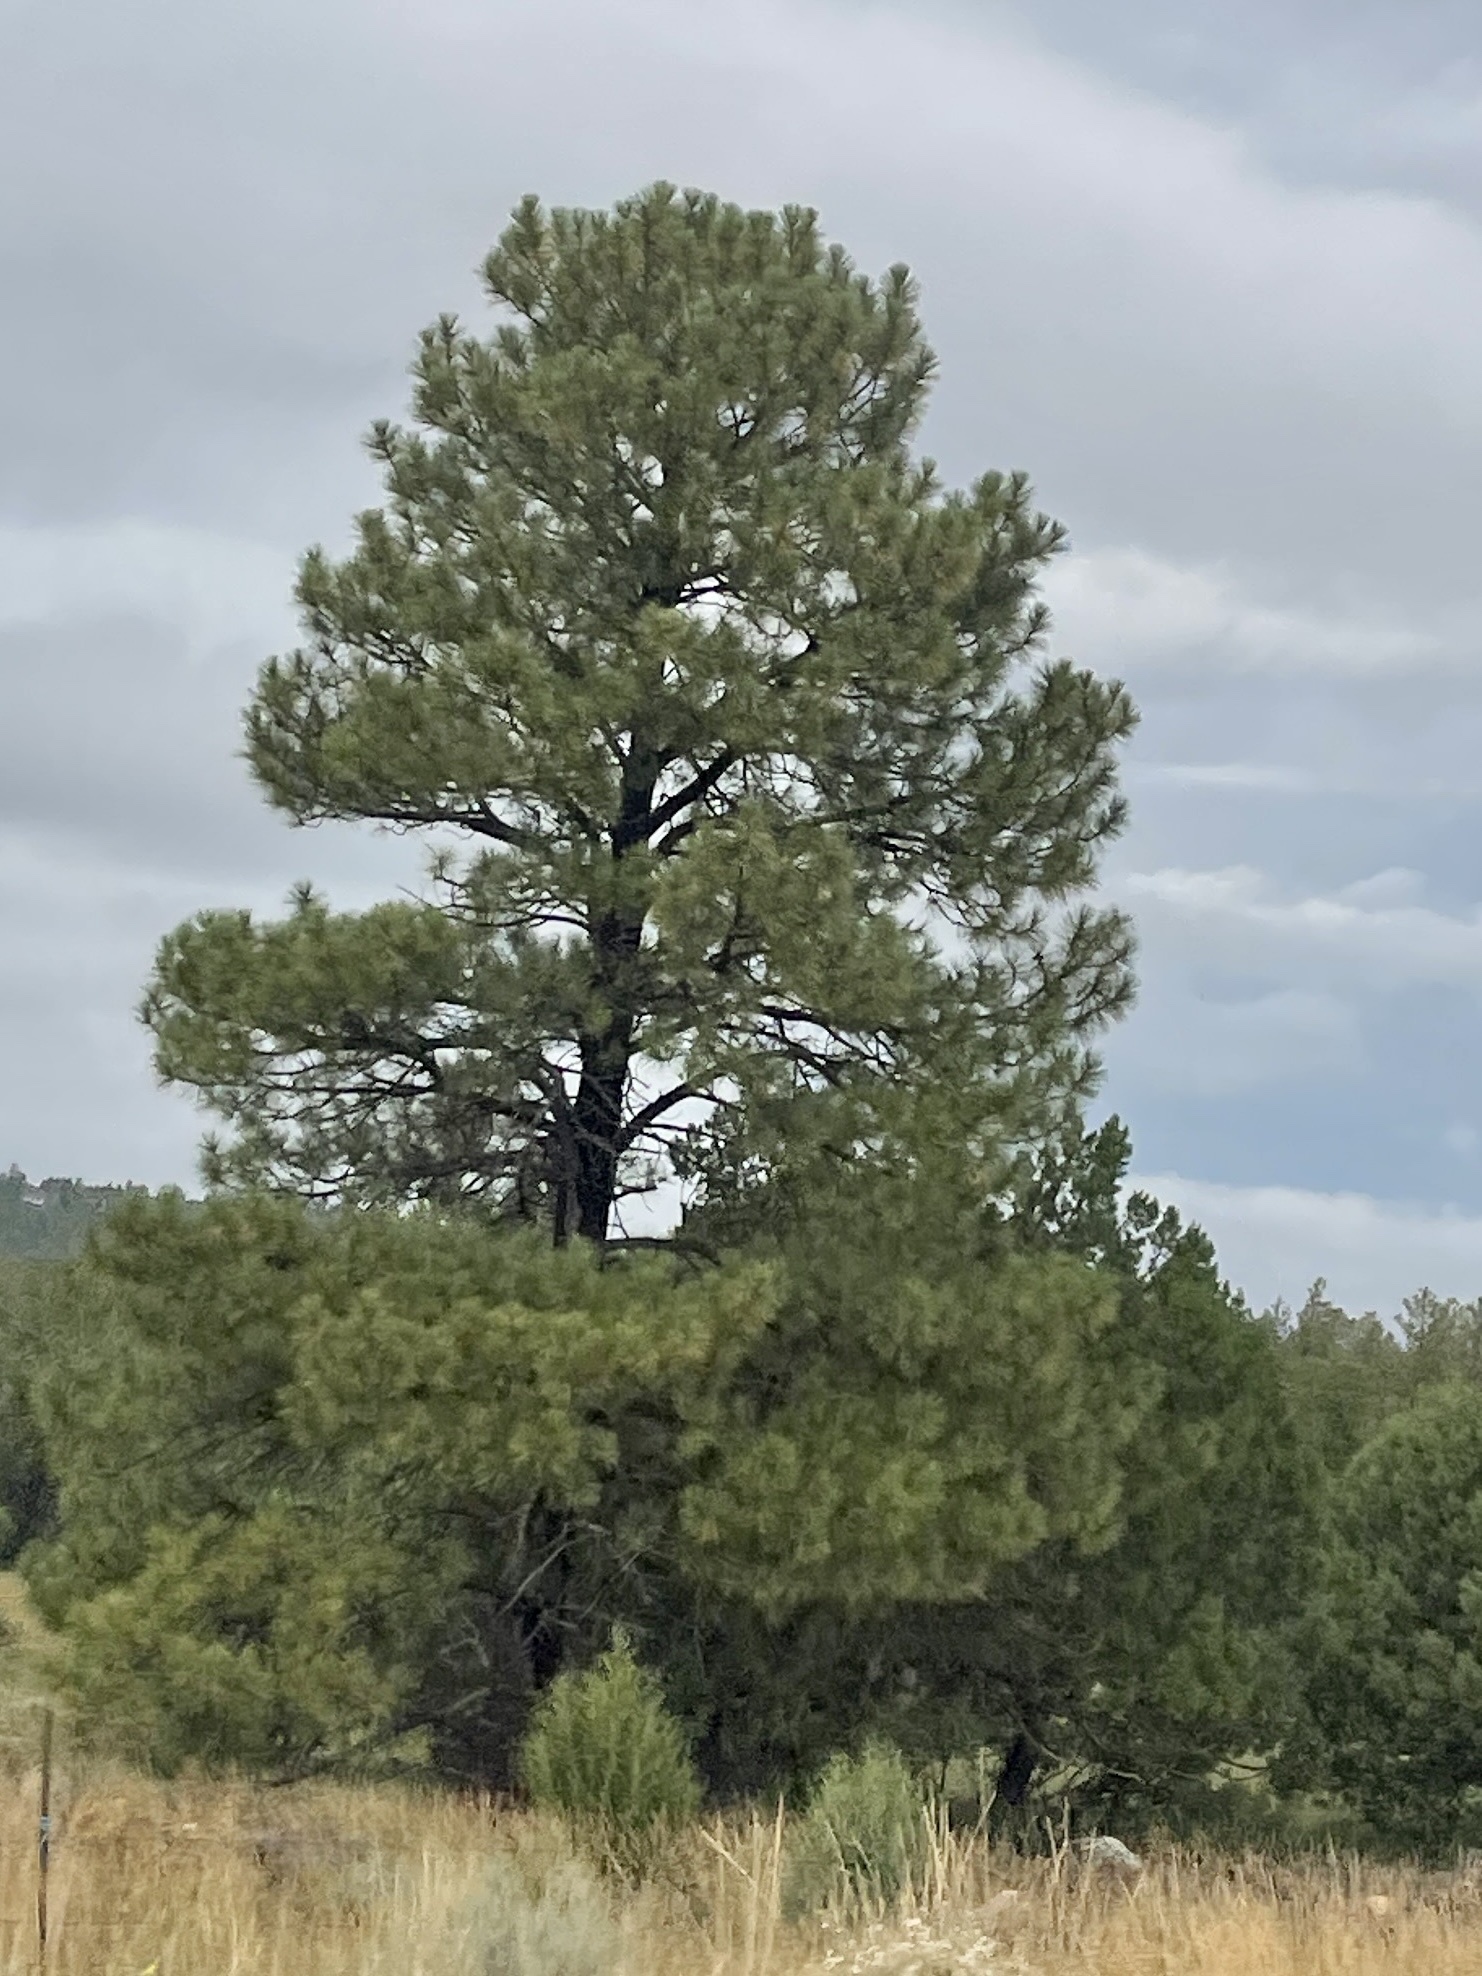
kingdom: Plantae
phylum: Tracheophyta
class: Pinopsida
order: Pinales
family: Pinaceae
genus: Pinus
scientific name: Pinus ponderosa
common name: Western yellow-pine
